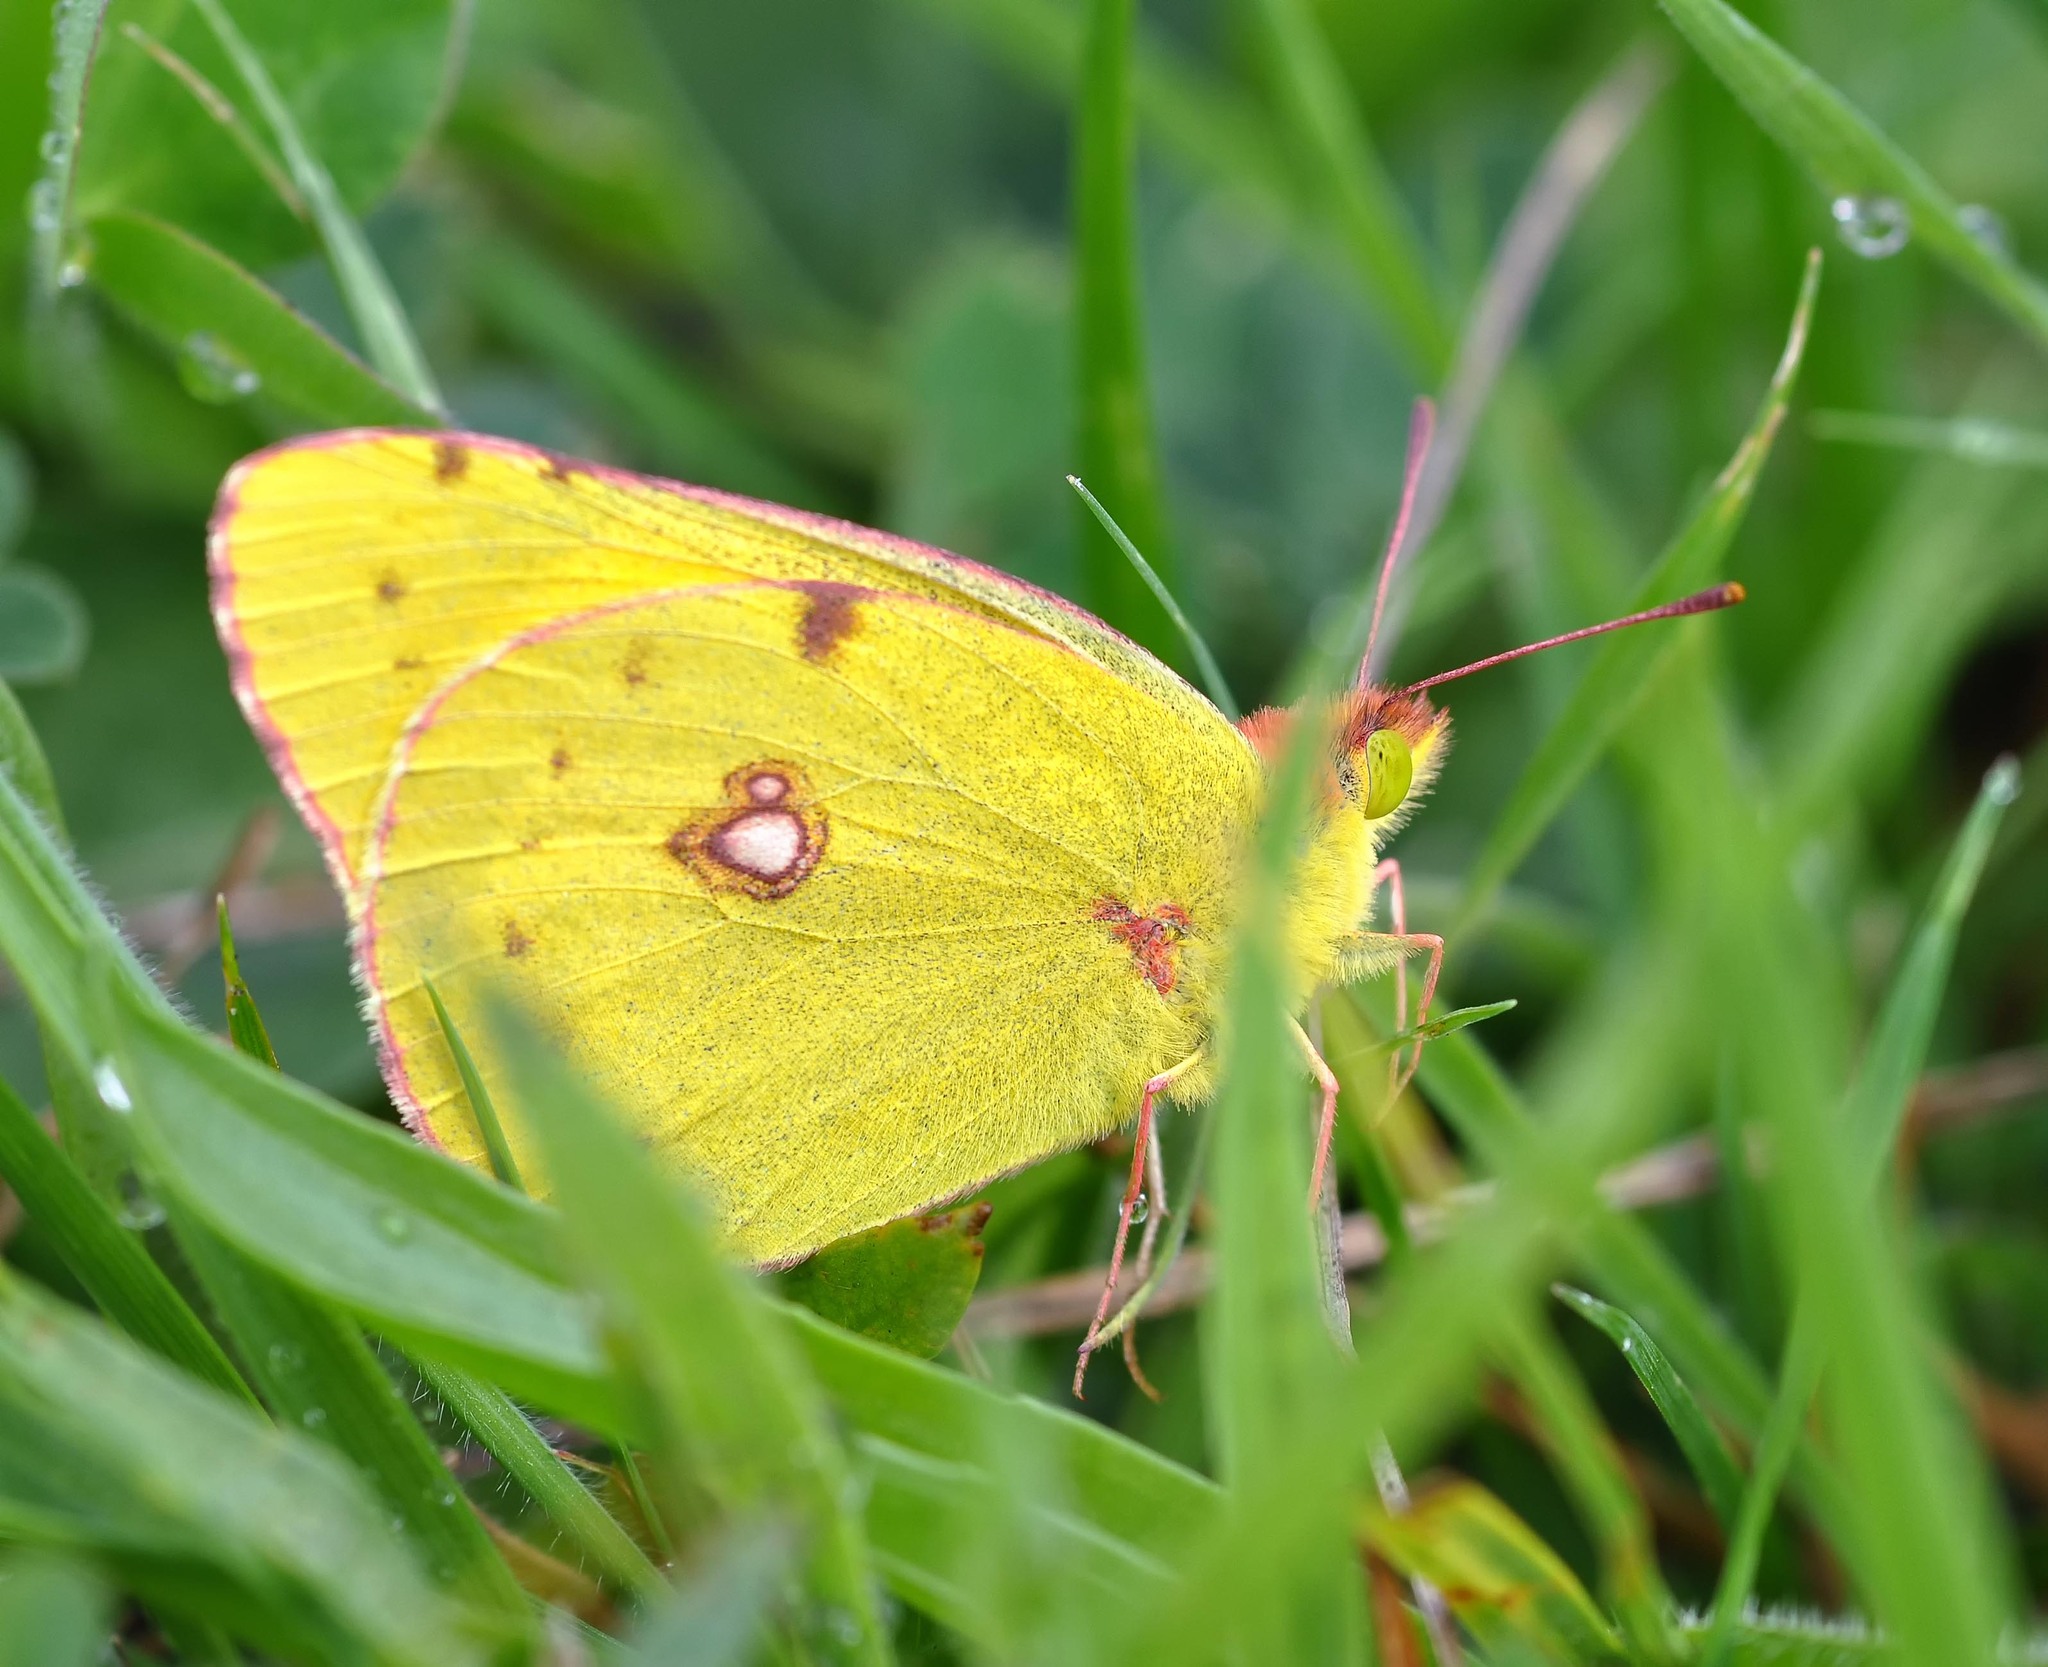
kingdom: Animalia
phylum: Arthropoda
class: Insecta
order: Lepidoptera
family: Pieridae
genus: Colias
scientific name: Colias croceus
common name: Clouded yellow
